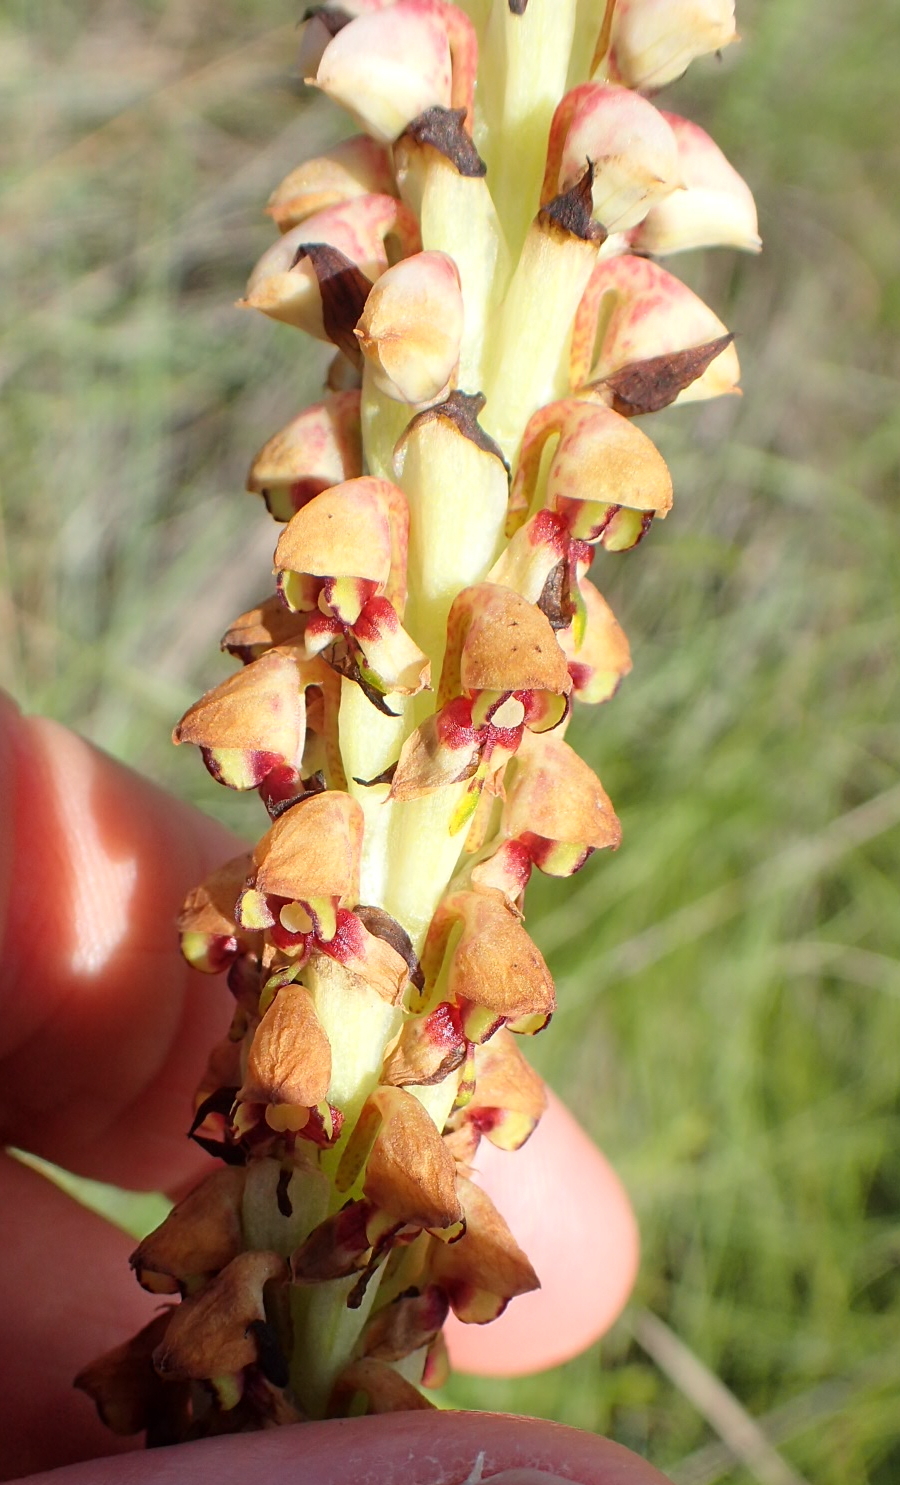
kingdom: Plantae
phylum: Tracheophyta
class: Liliopsida
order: Asparagales
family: Orchidaceae
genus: Disa
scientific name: Disa versicolor
